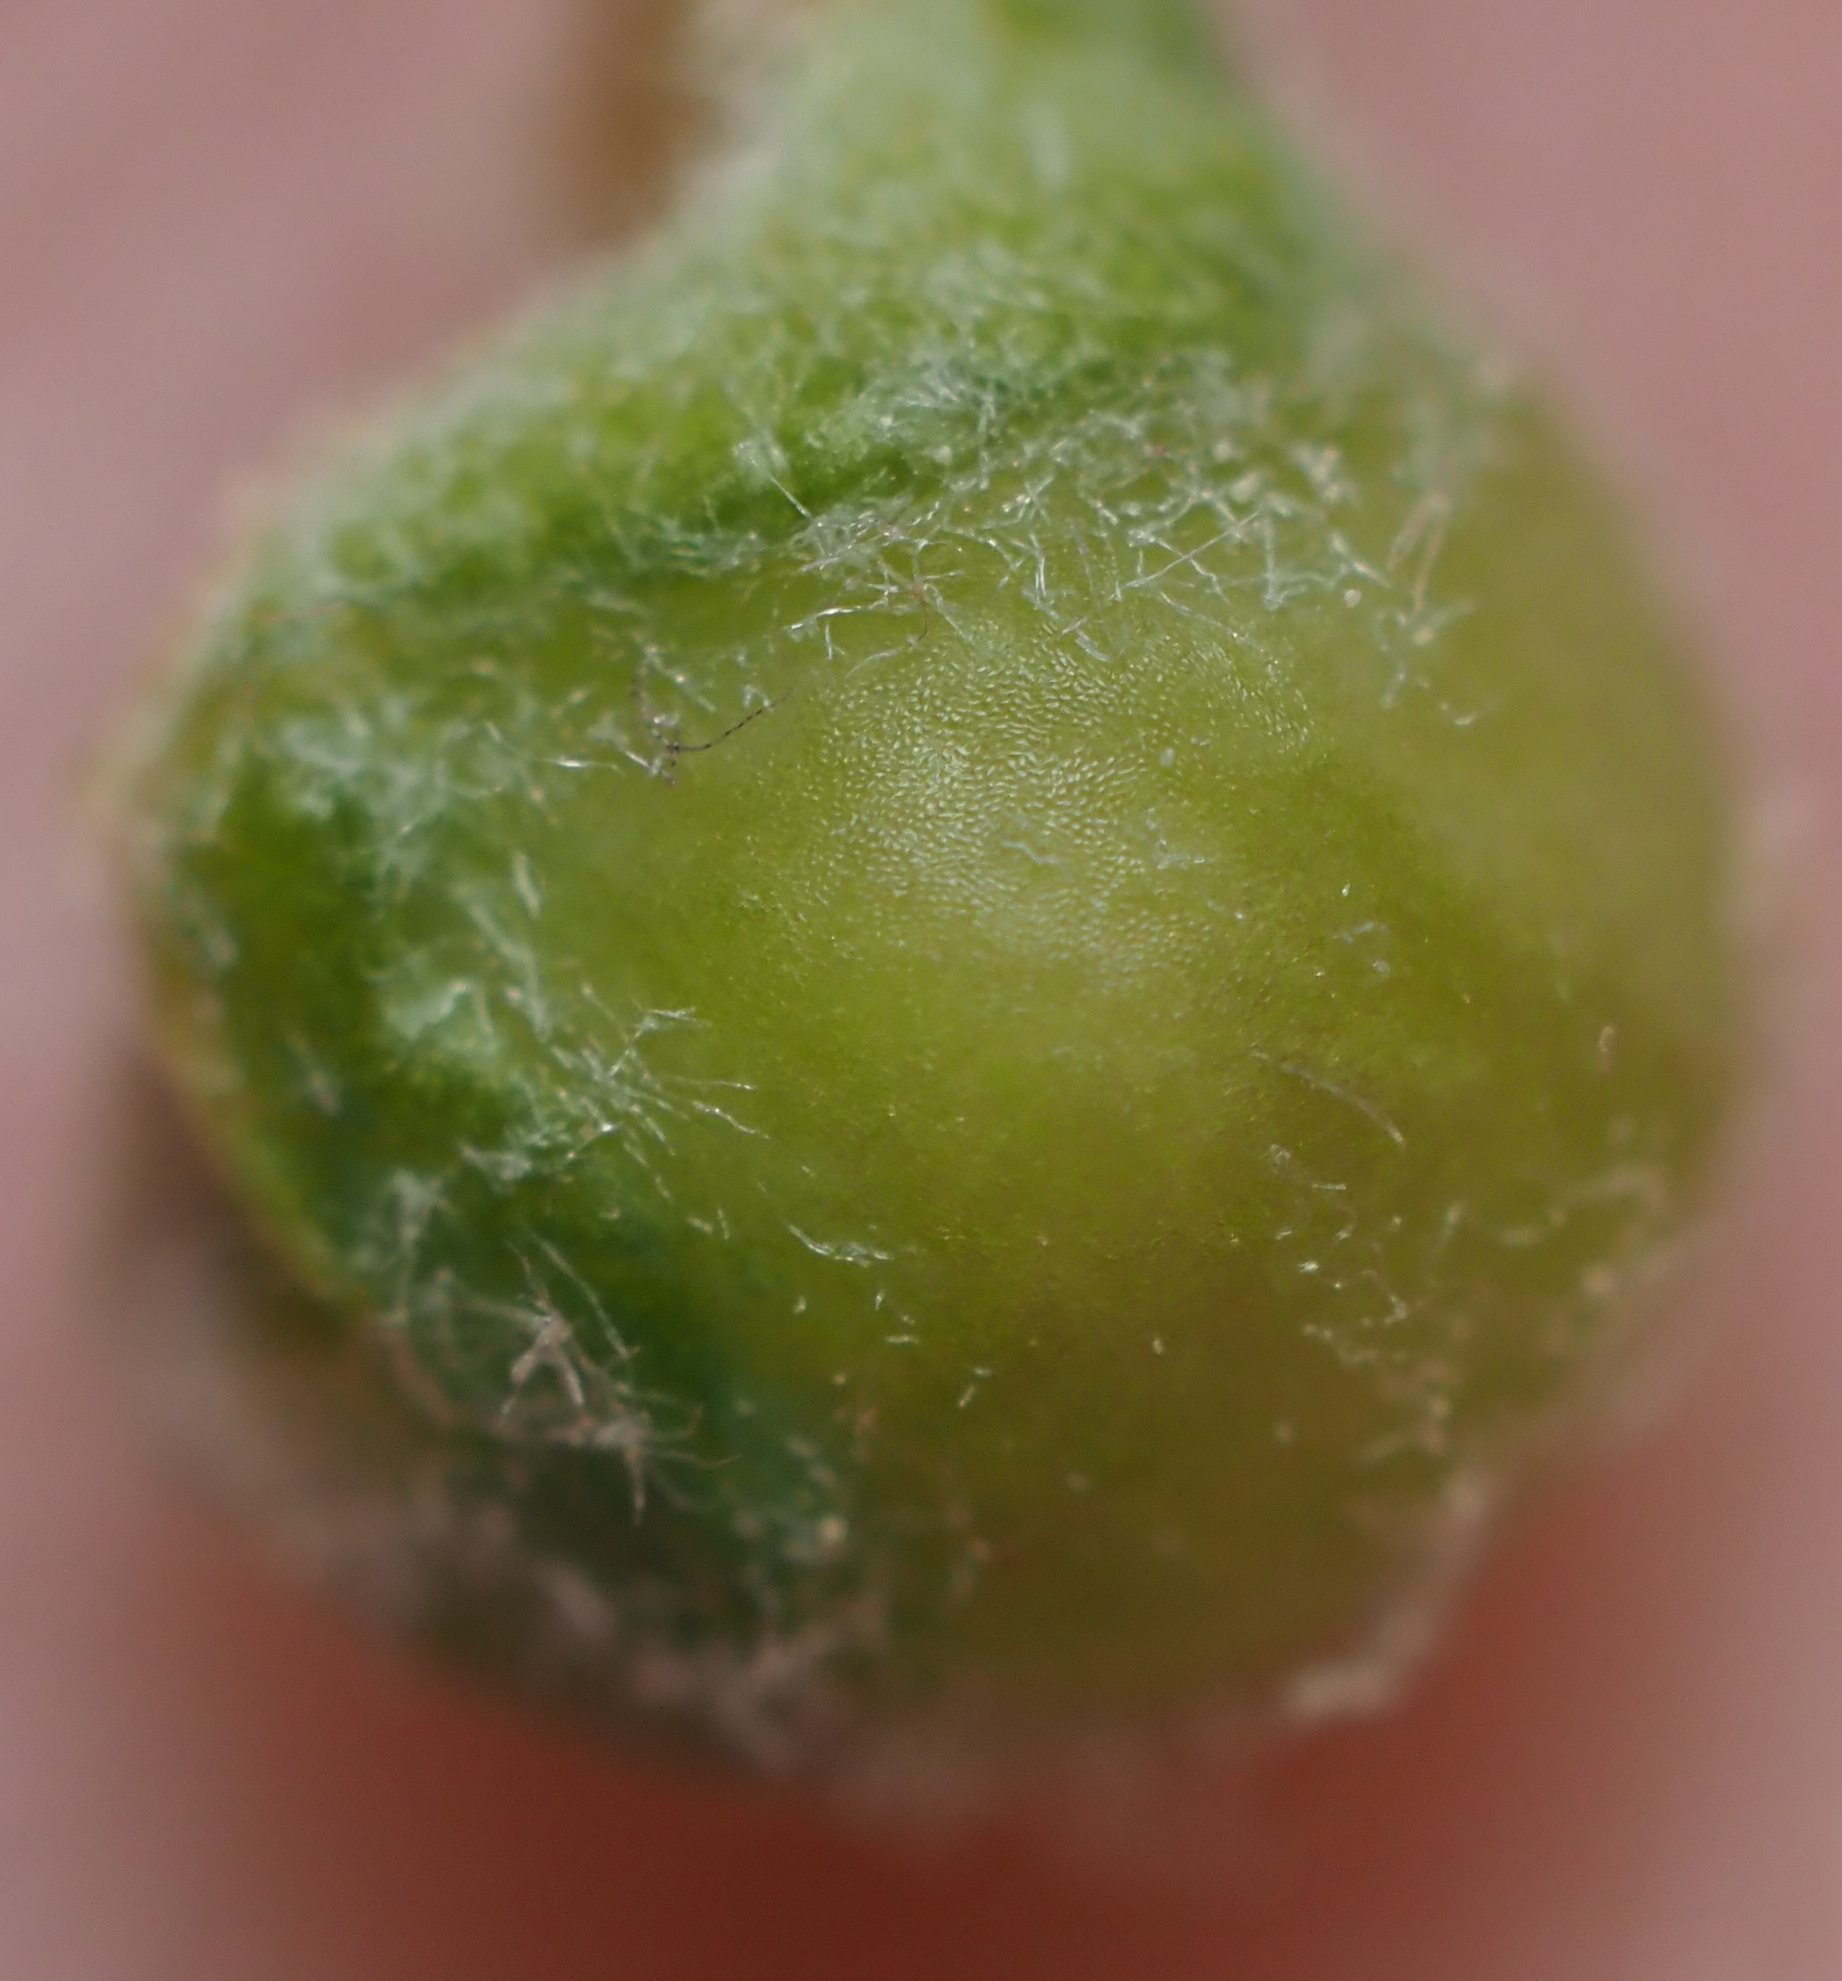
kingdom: Animalia
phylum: Arthropoda
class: Insecta
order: Hymenoptera
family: Cynipidae
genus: Andricus
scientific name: Andricus
